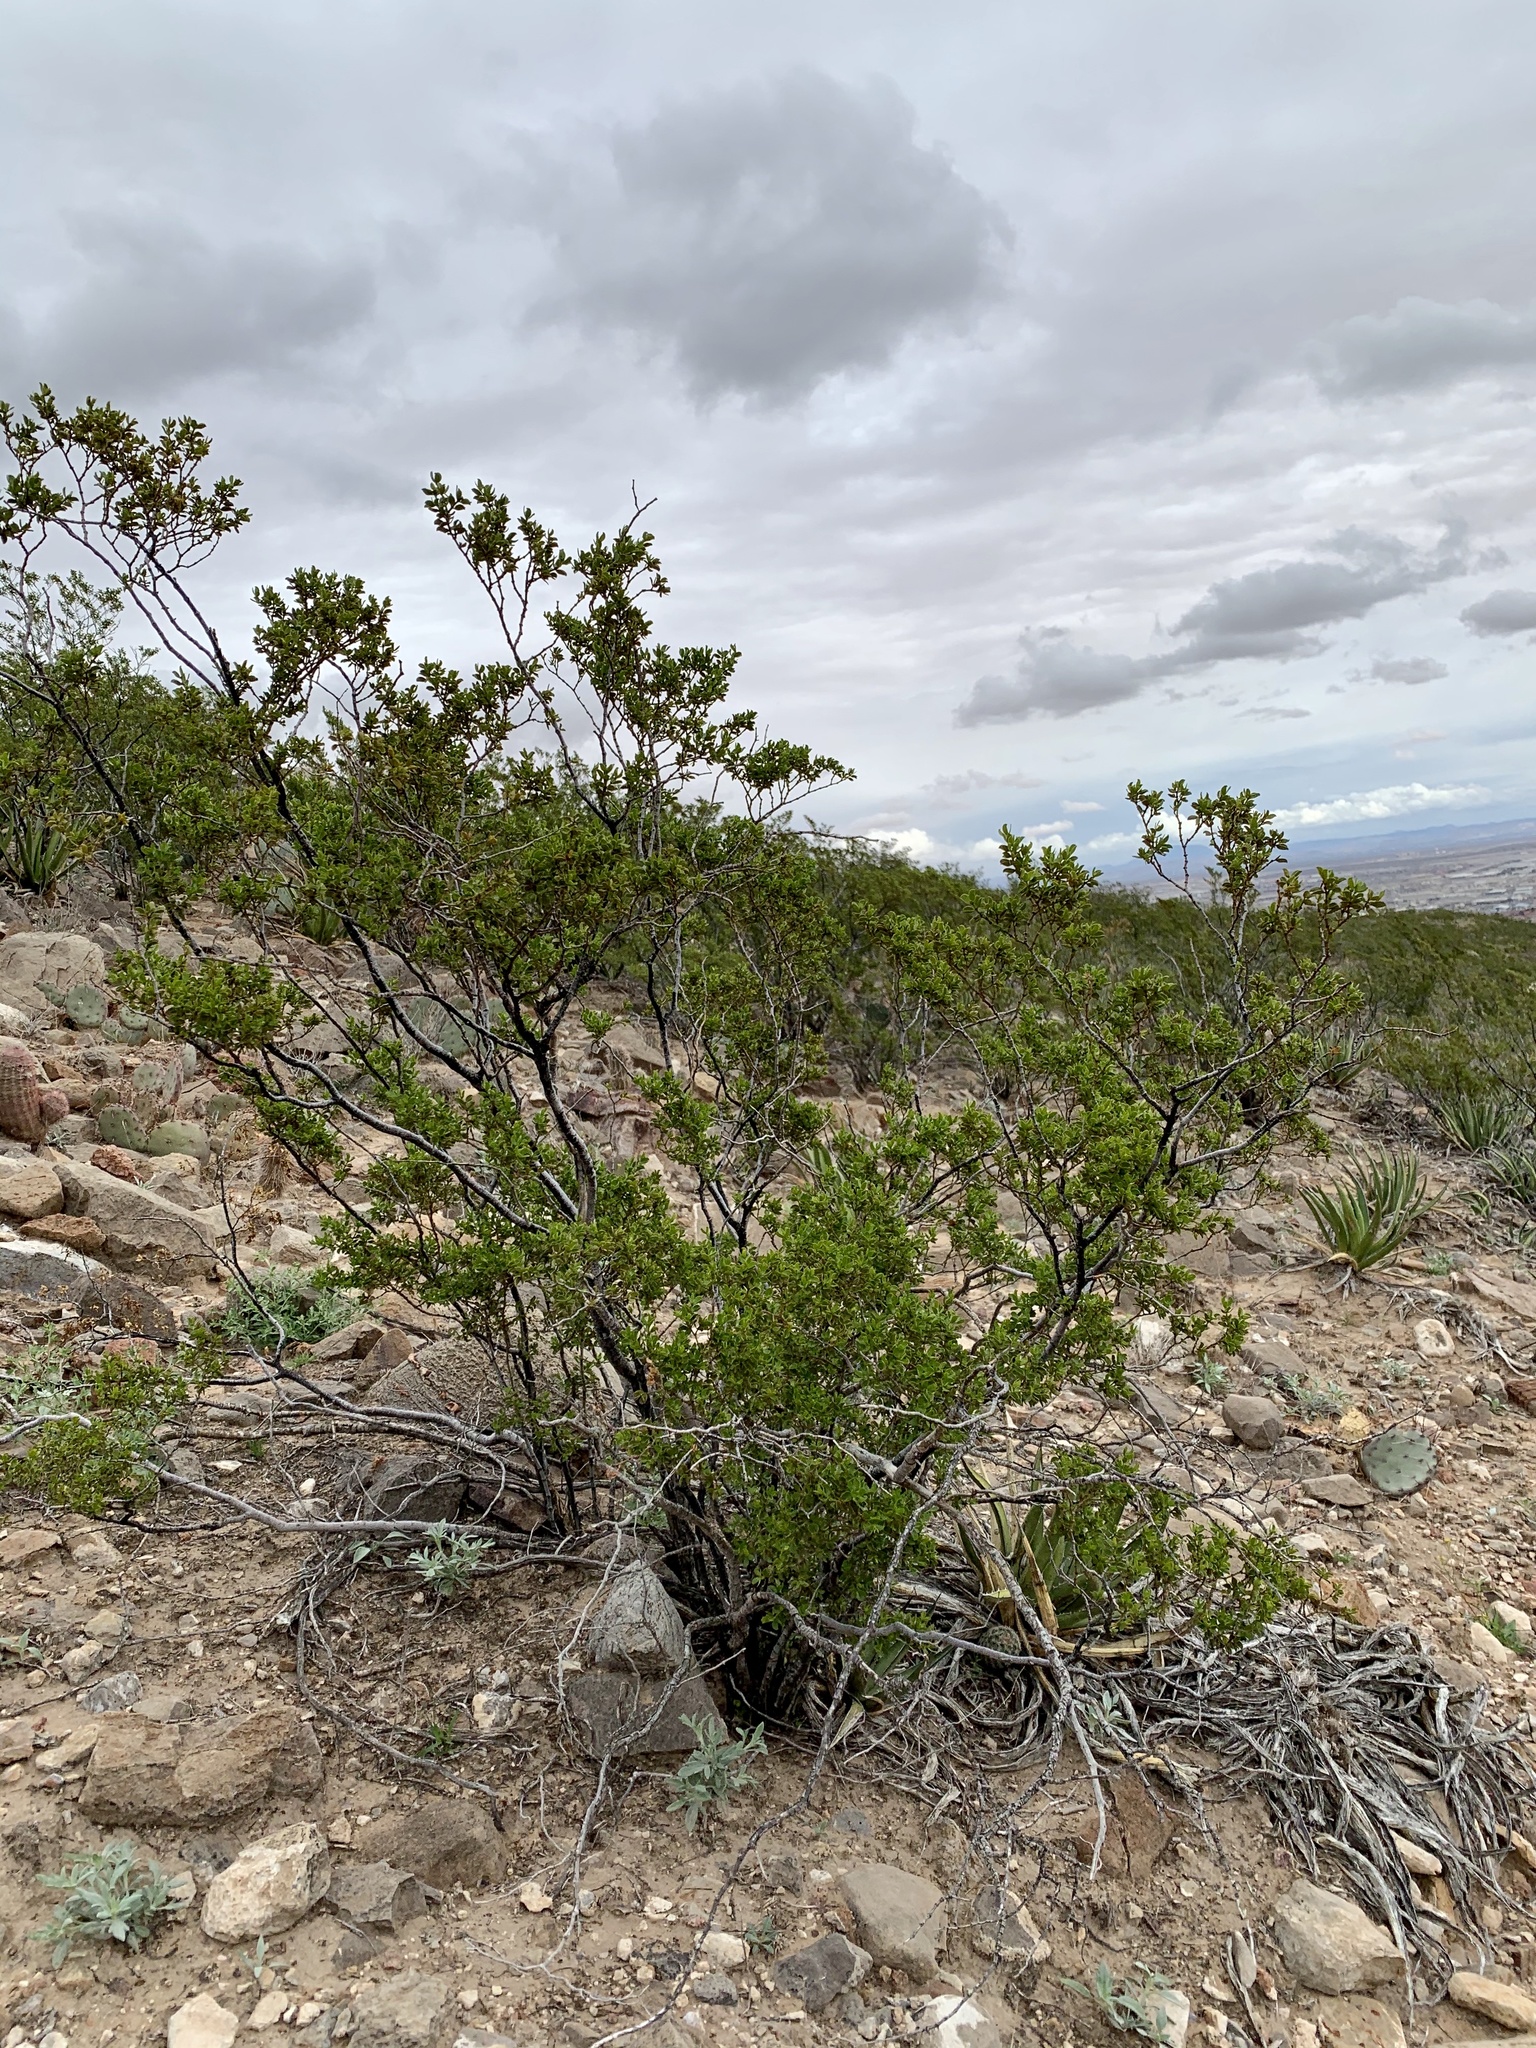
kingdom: Plantae
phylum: Tracheophyta
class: Magnoliopsida
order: Zygophyllales
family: Zygophyllaceae
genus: Larrea
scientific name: Larrea tridentata
